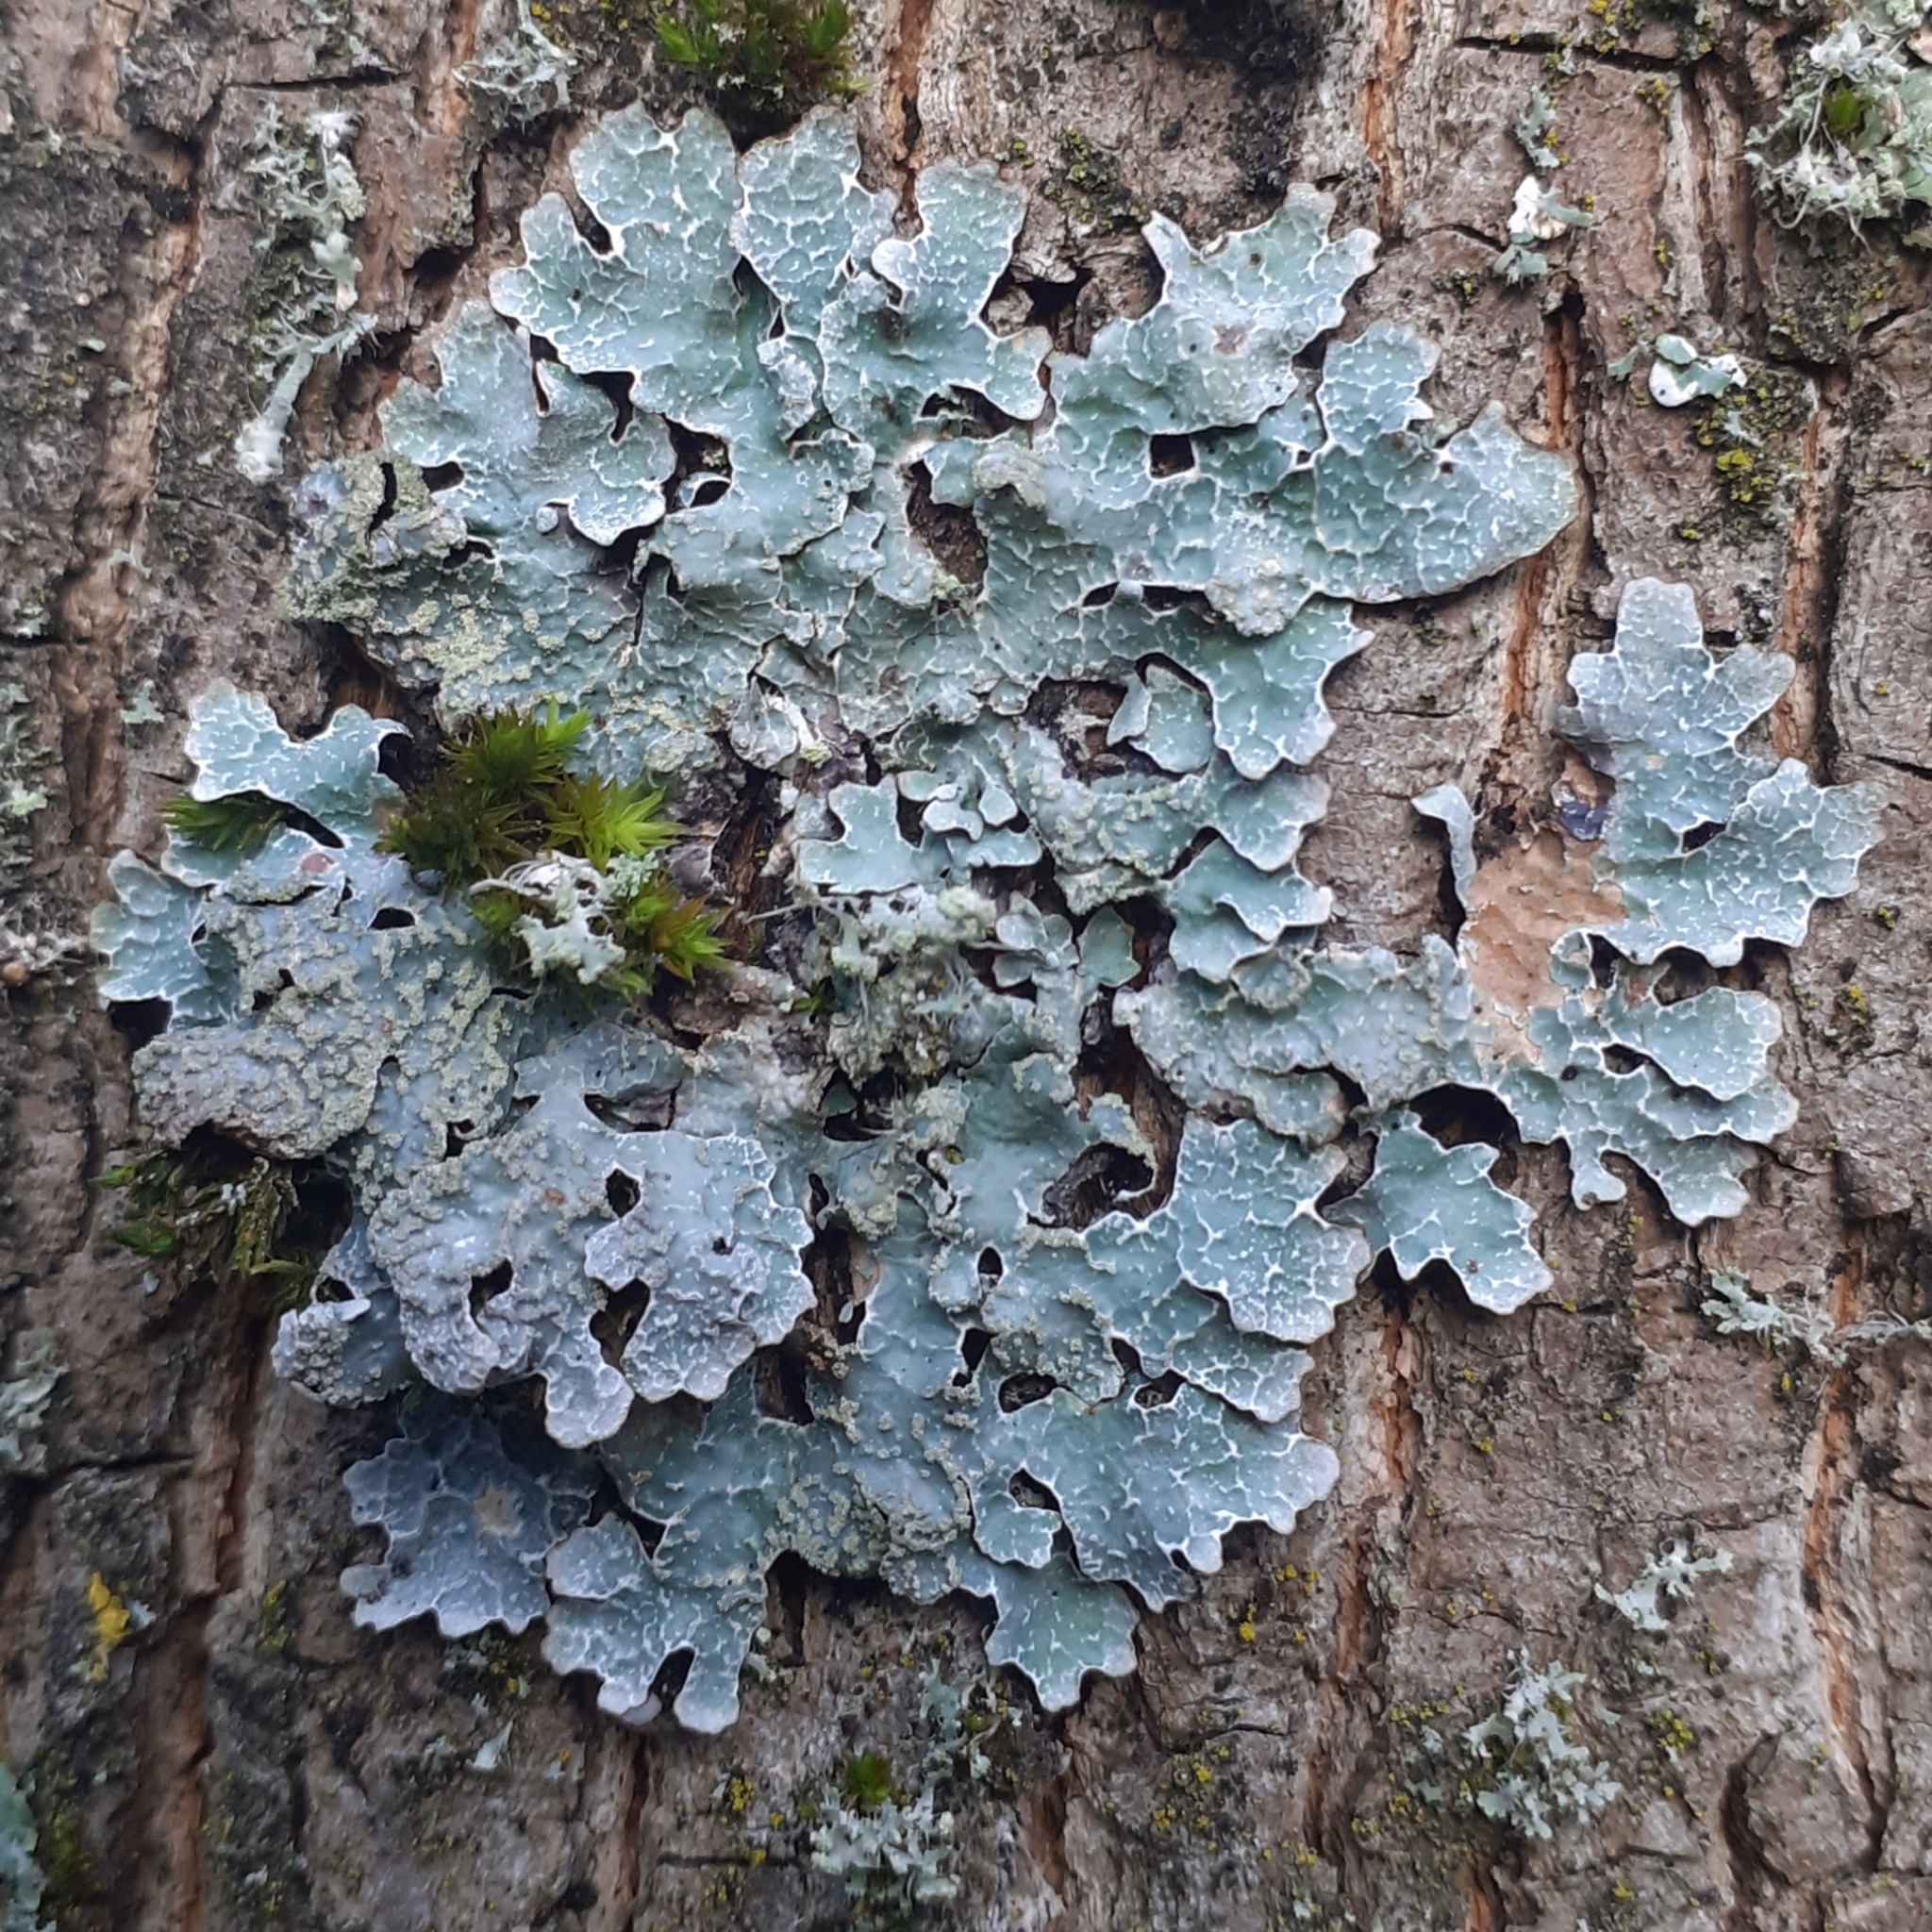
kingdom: Fungi
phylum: Ascomycota
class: Lecanoromycetes
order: Lecanorales
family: Parmeliaceae
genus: Parmelia
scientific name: Parmelia sulcata
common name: Netted shield lichen
